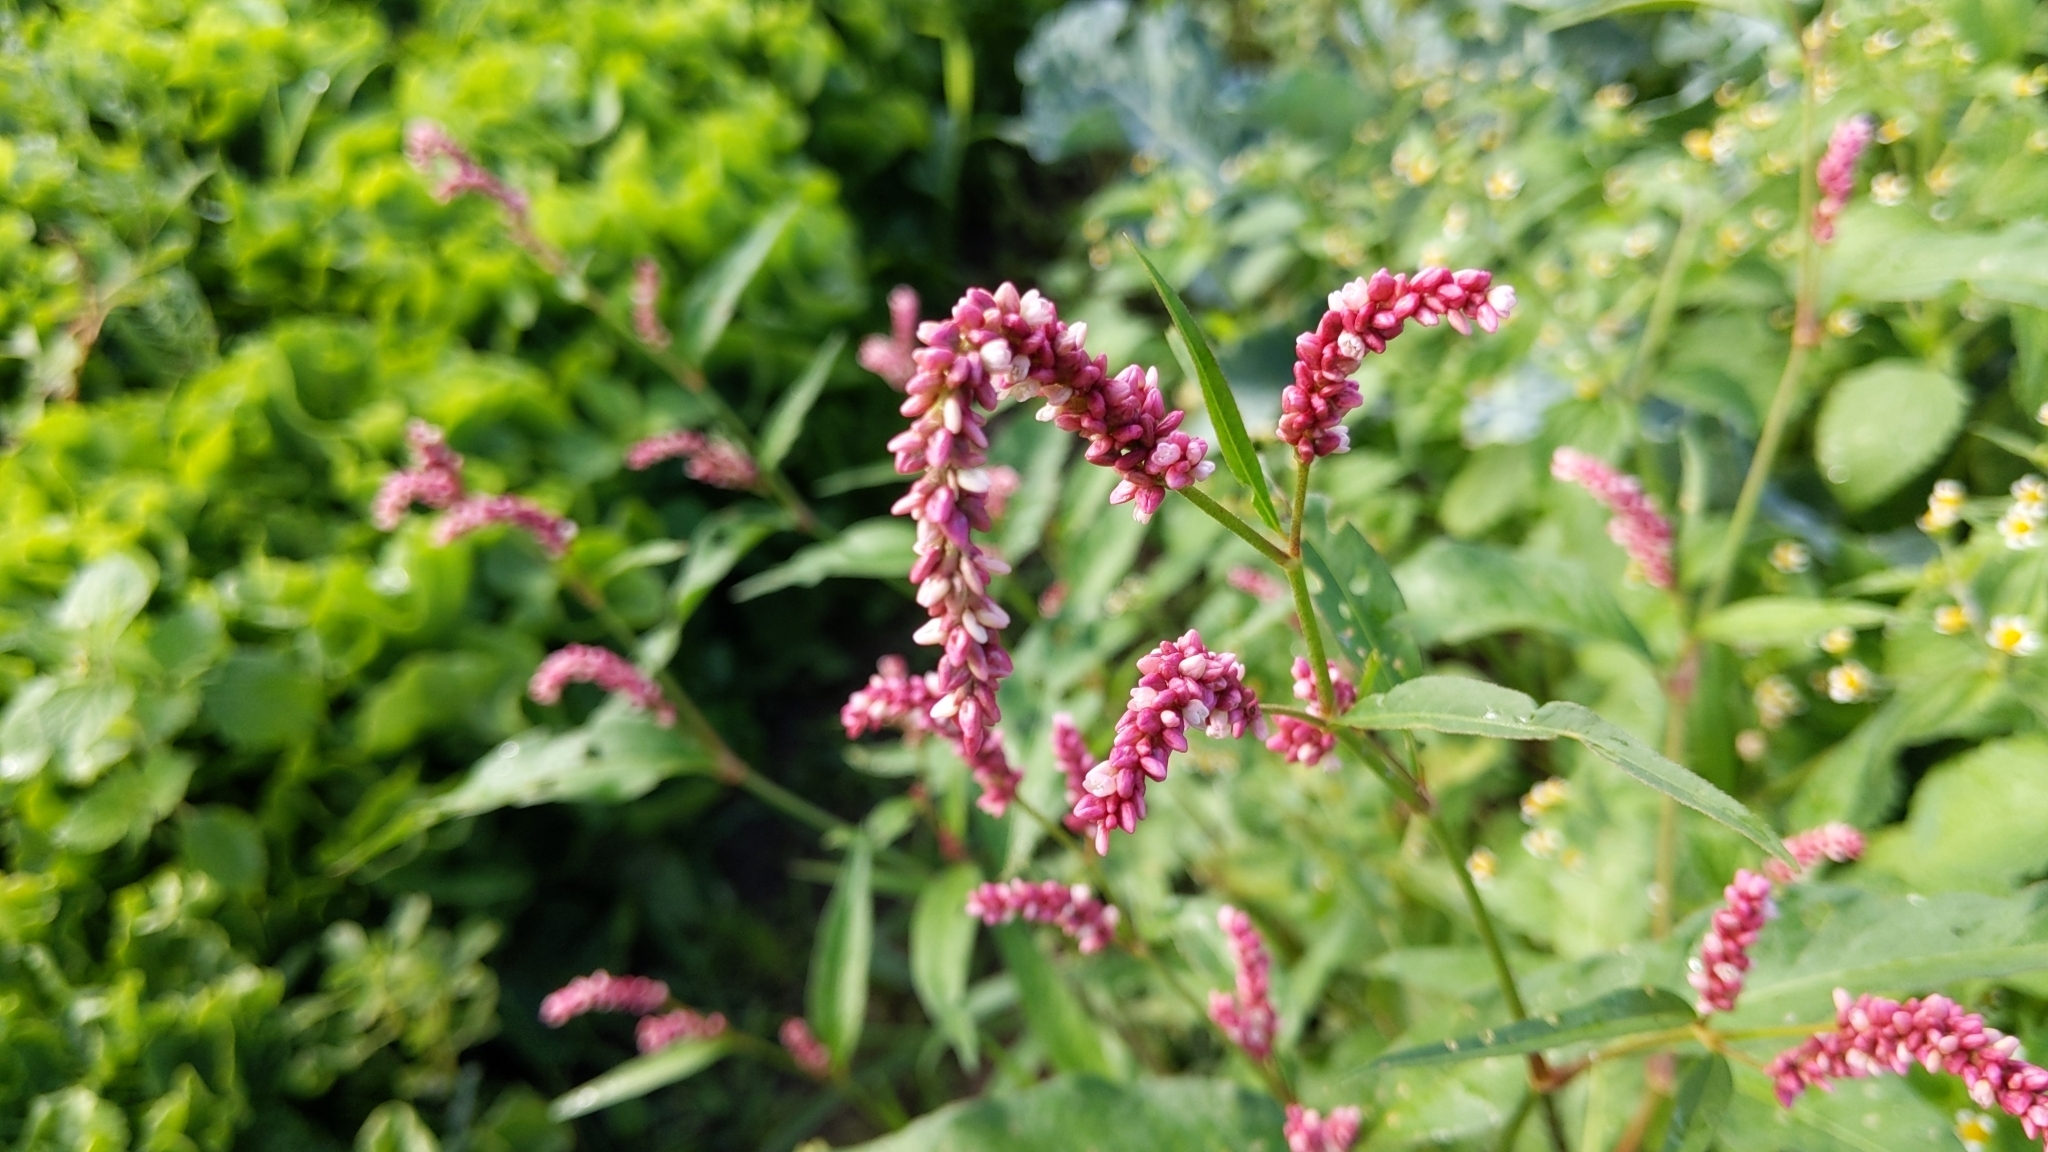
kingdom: Plantae
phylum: Tracheophyta
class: Magnoliopsida
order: Caryophyllales
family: Polygonaceae
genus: Persicaria
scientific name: Persicaria maculosa
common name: Redshank
